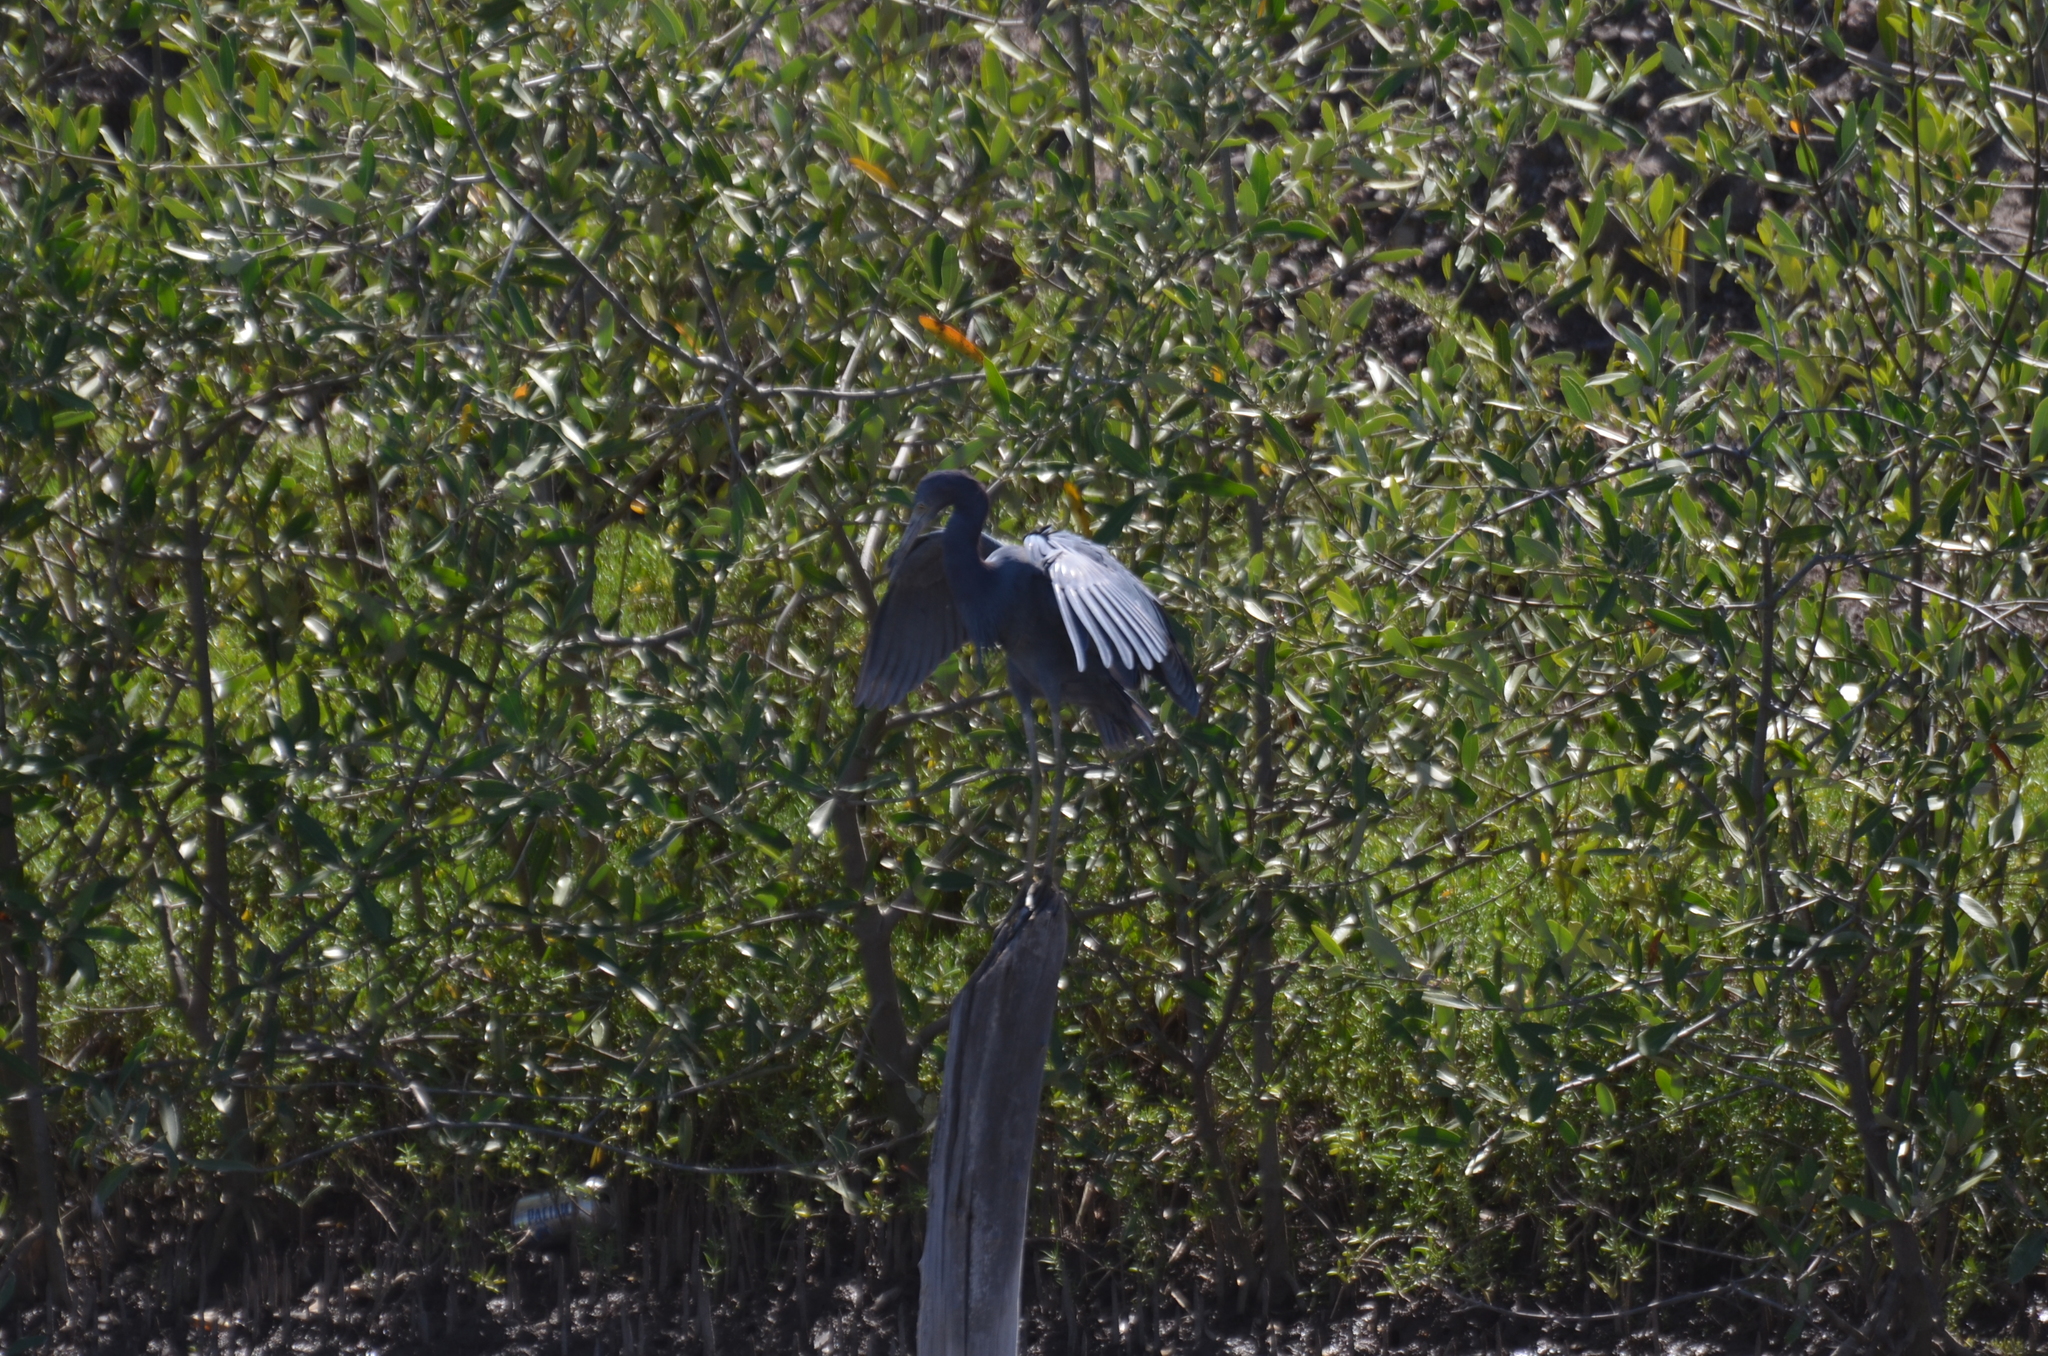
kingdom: Animalia
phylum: Chordata
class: Aves
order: Pelecaniformes
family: Ardeidae
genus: Egretta
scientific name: Egretta caerulea
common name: Little blue heron
